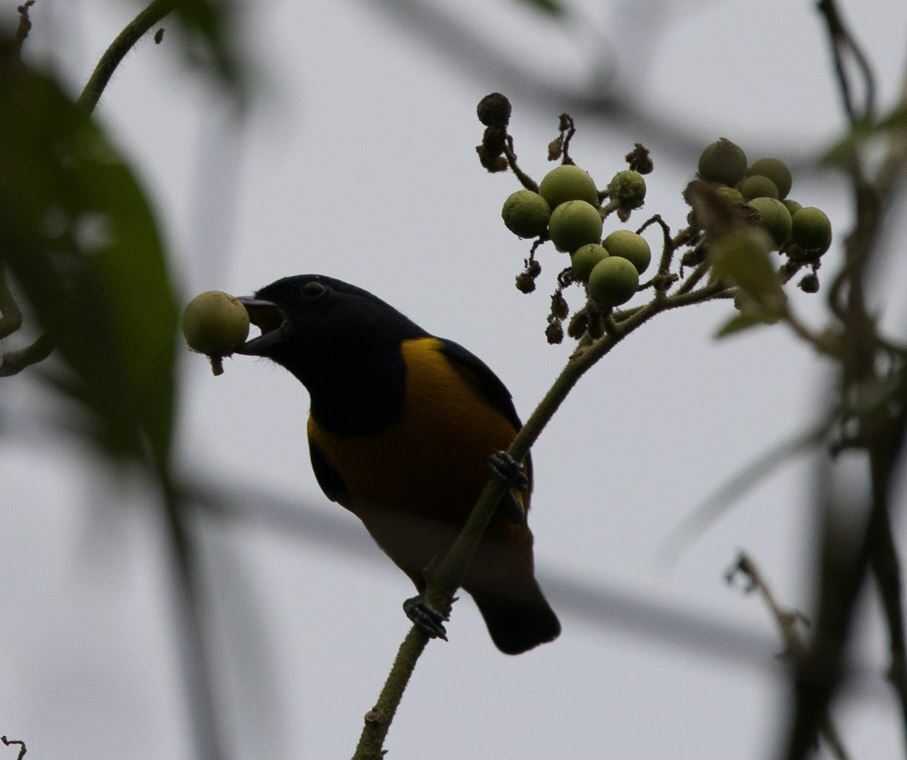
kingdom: Animalia
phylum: Chordata
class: Aves
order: Passeriformes
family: Fringillidae
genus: Euphonia
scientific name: Euphonia rufiventris
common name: Rufous-bellied euphonia
